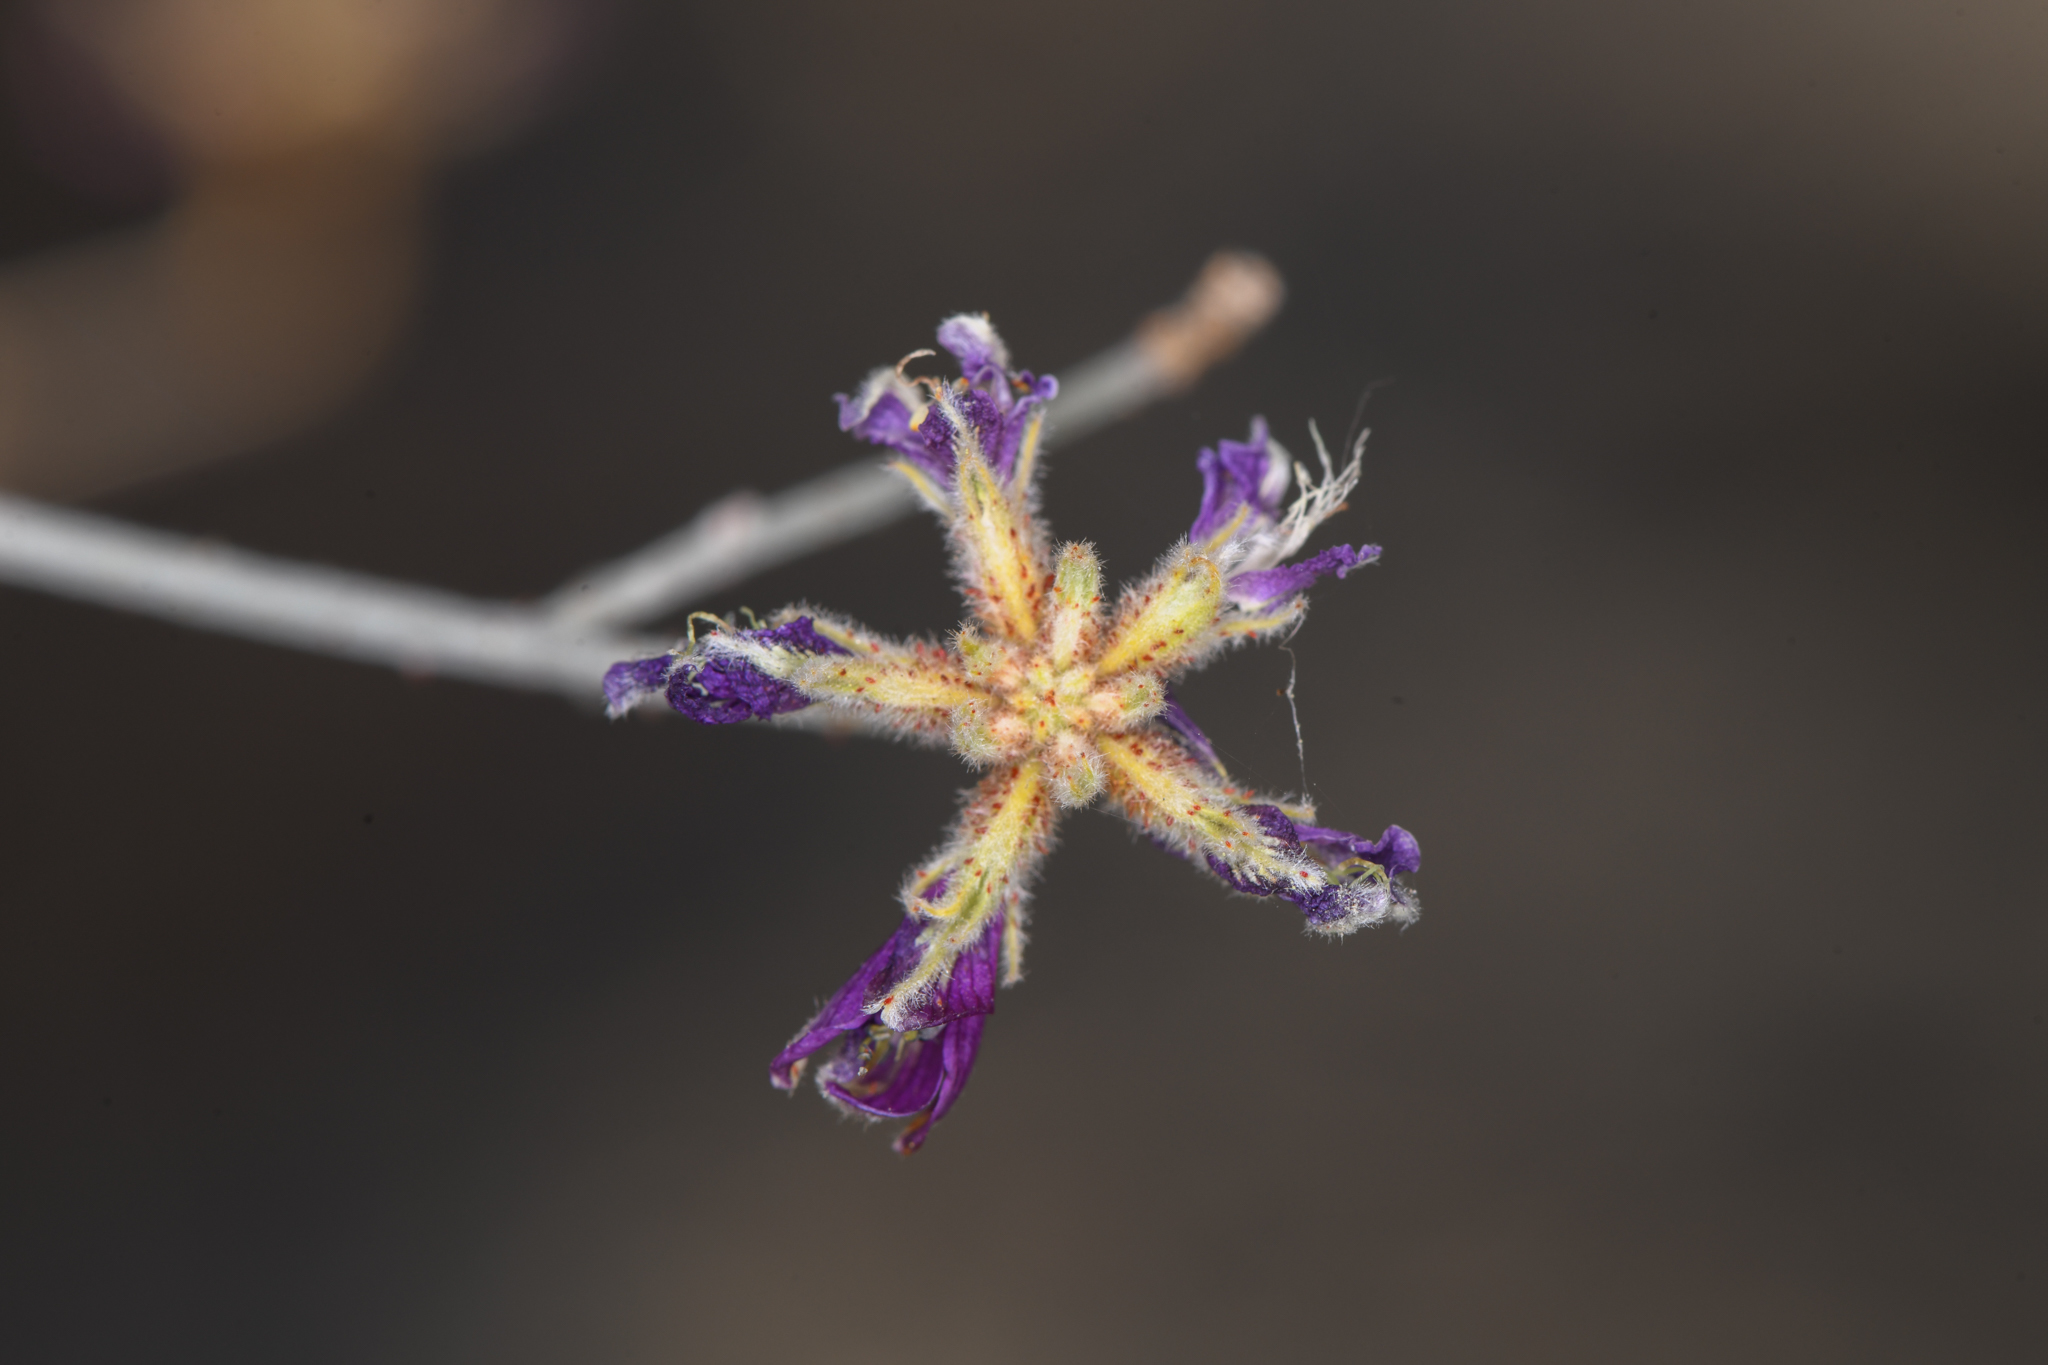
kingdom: Plantae
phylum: Tracheophyta
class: Magnoliopsida
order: Fabales
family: Fabaceae
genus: Psorothamnus
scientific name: Psorothamnus emoryi
